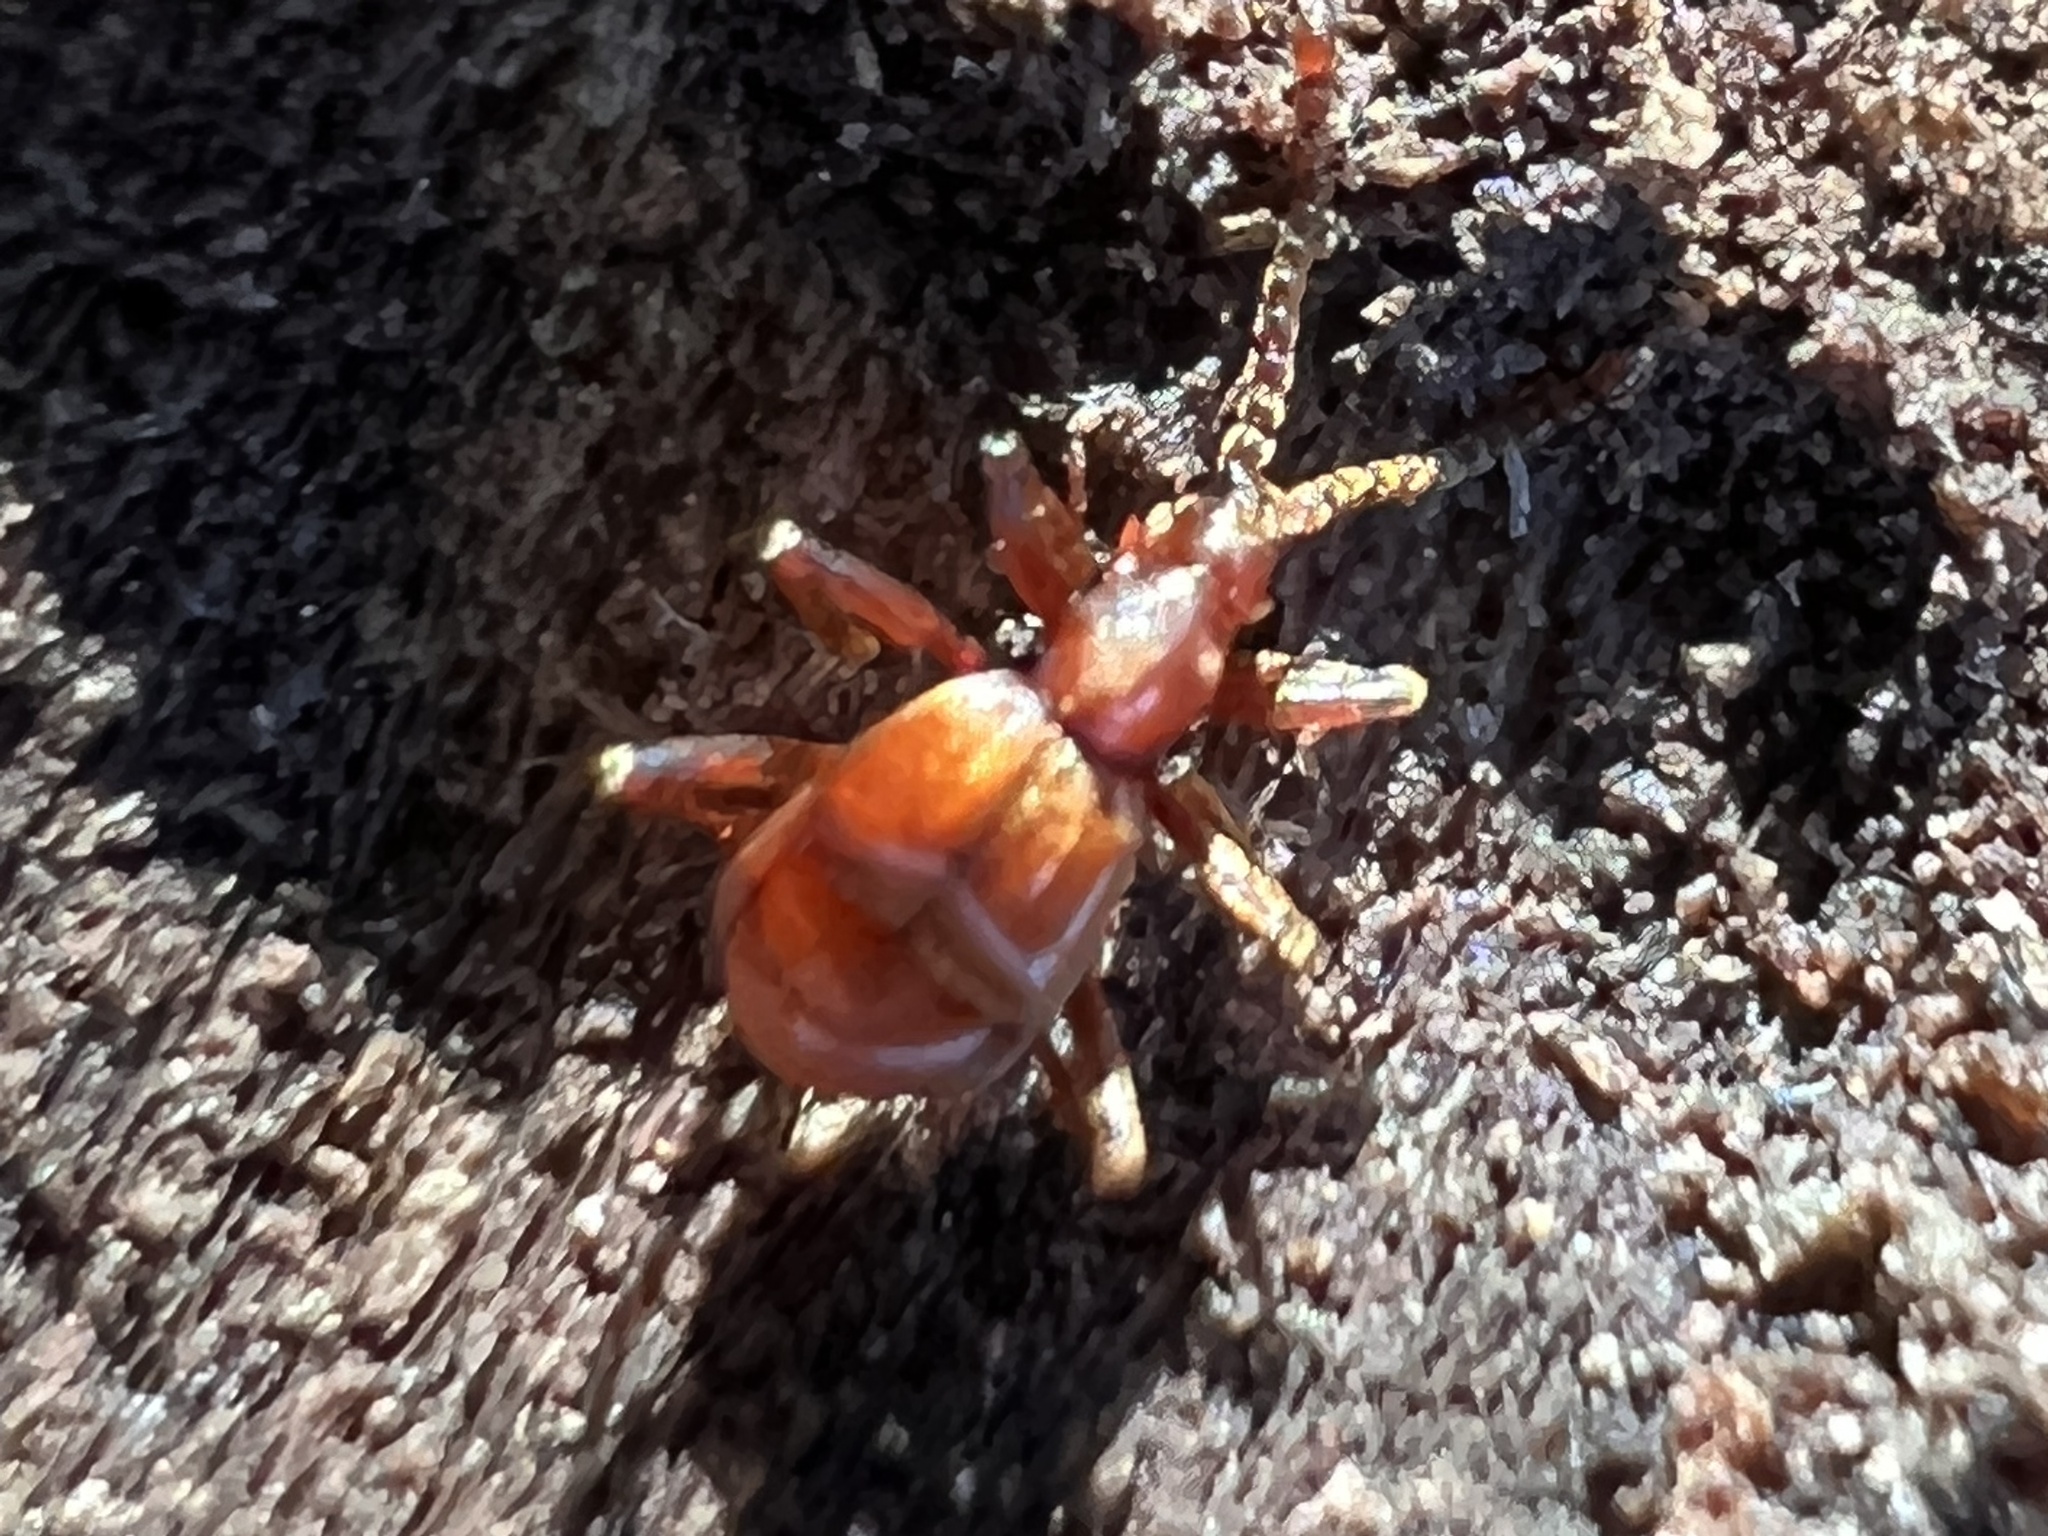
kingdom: Animalia
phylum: Arthropoda
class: Insecta
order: Coleoptera
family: Staphylinidae
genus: Ceophyllus
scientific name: Ceophyllus monilis
